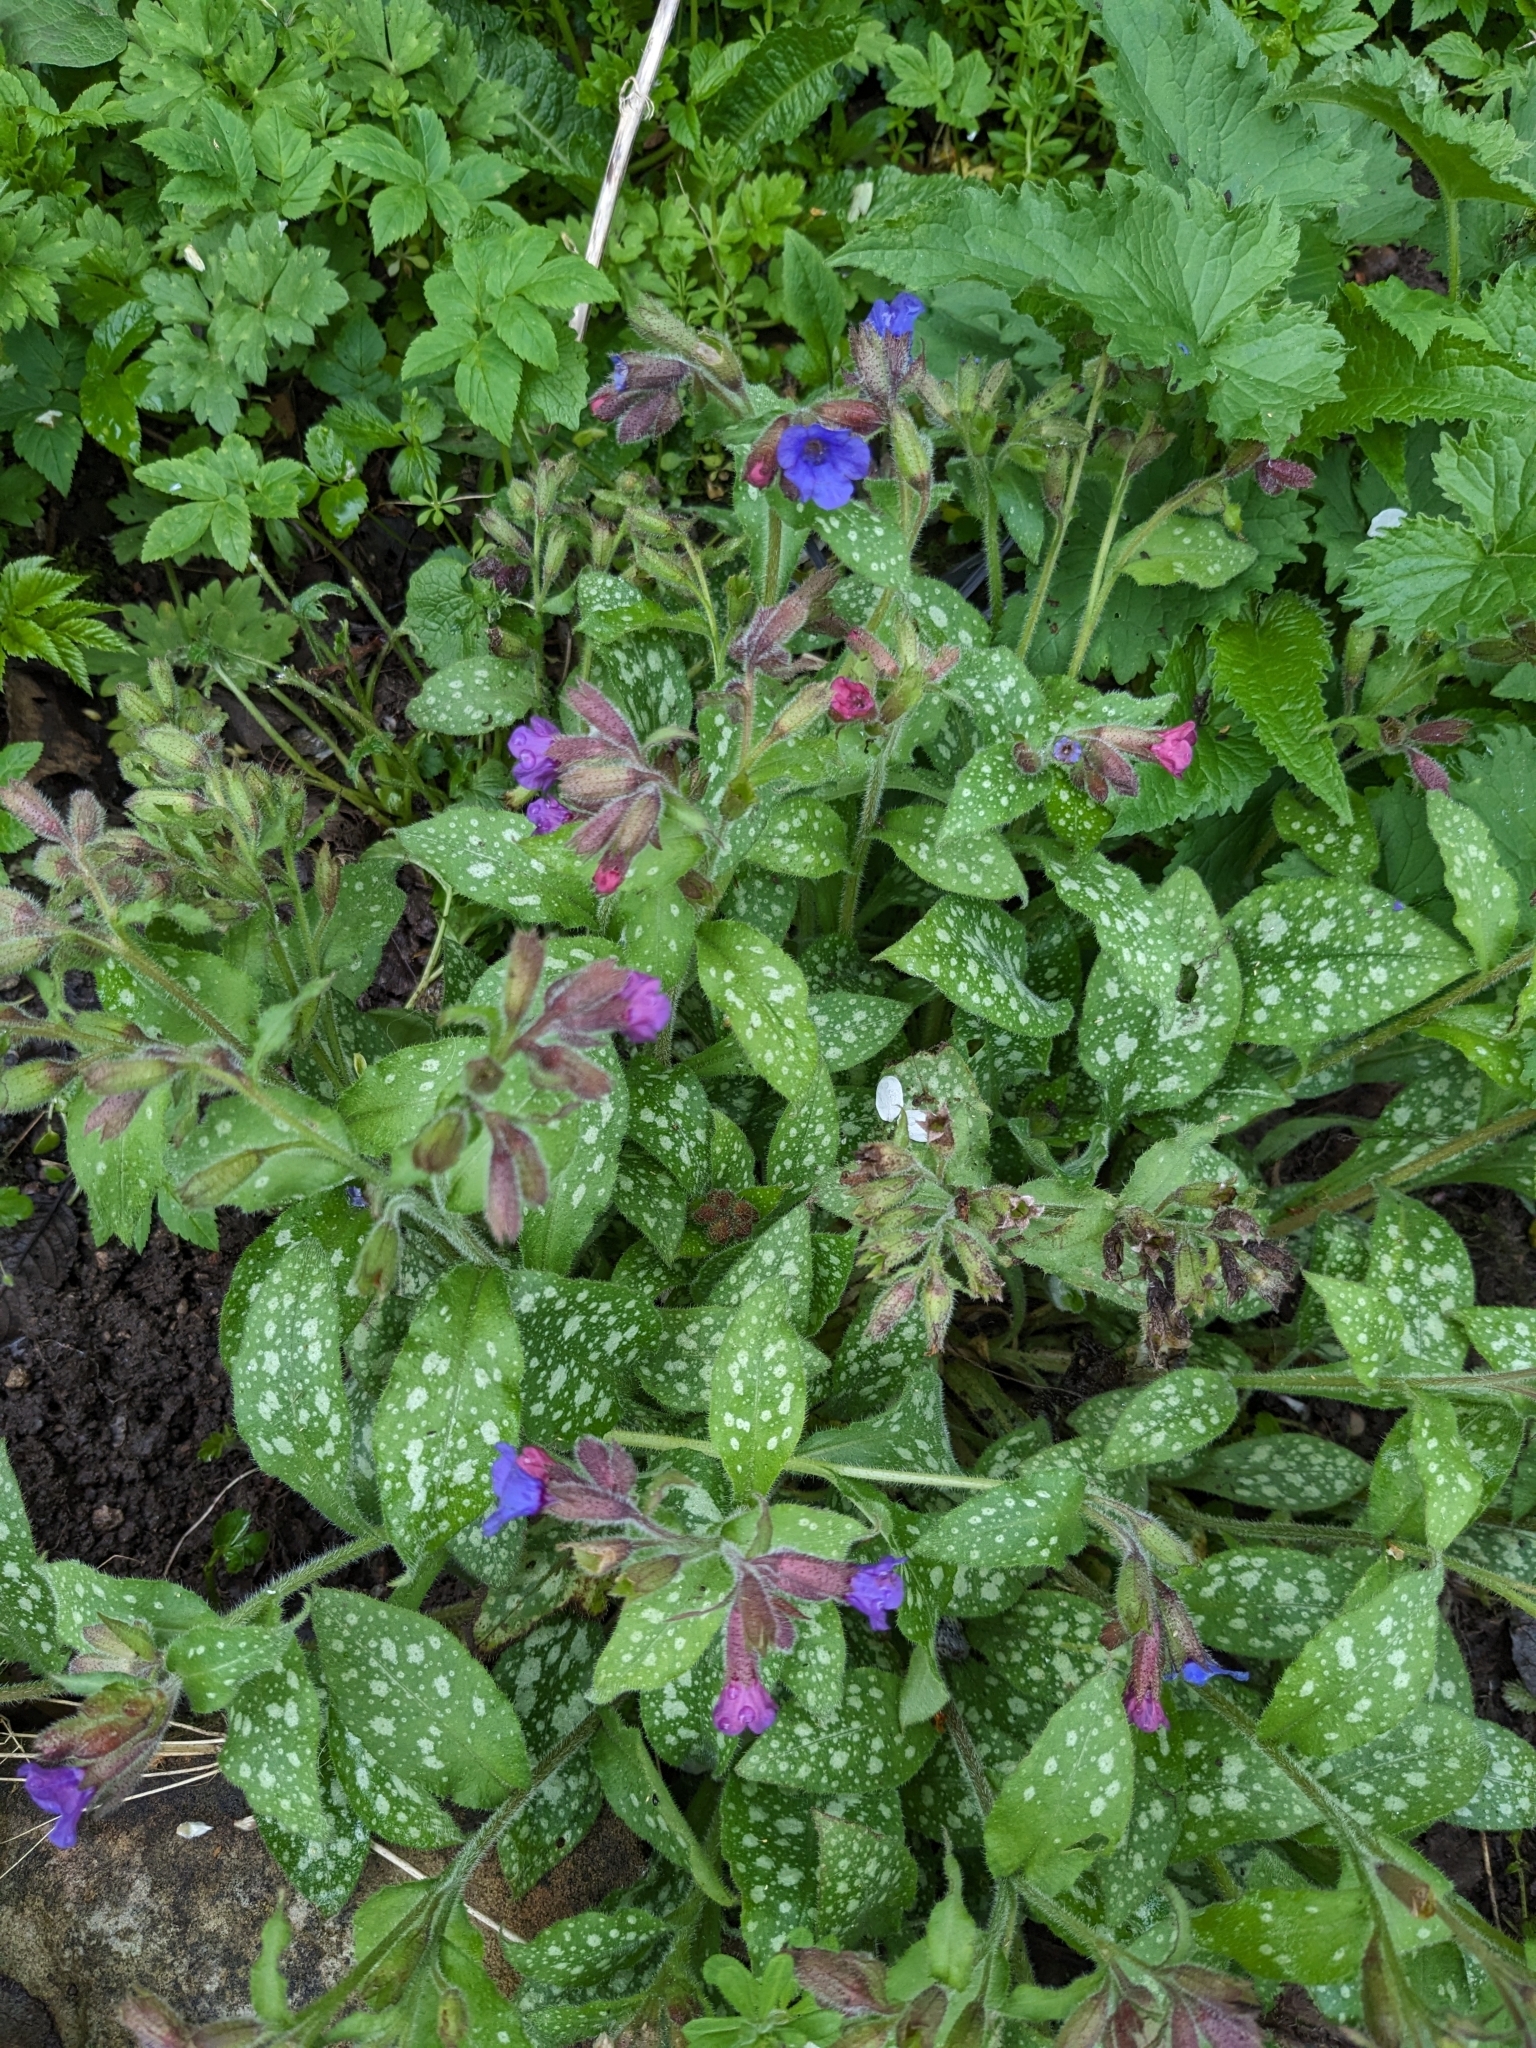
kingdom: Plantae
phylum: Tracheophyta
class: Magnoliopsida
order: Boraginales
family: Boraginaceae
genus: Pulmonaria
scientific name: Pulmonaria officinalis
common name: Lungwort
